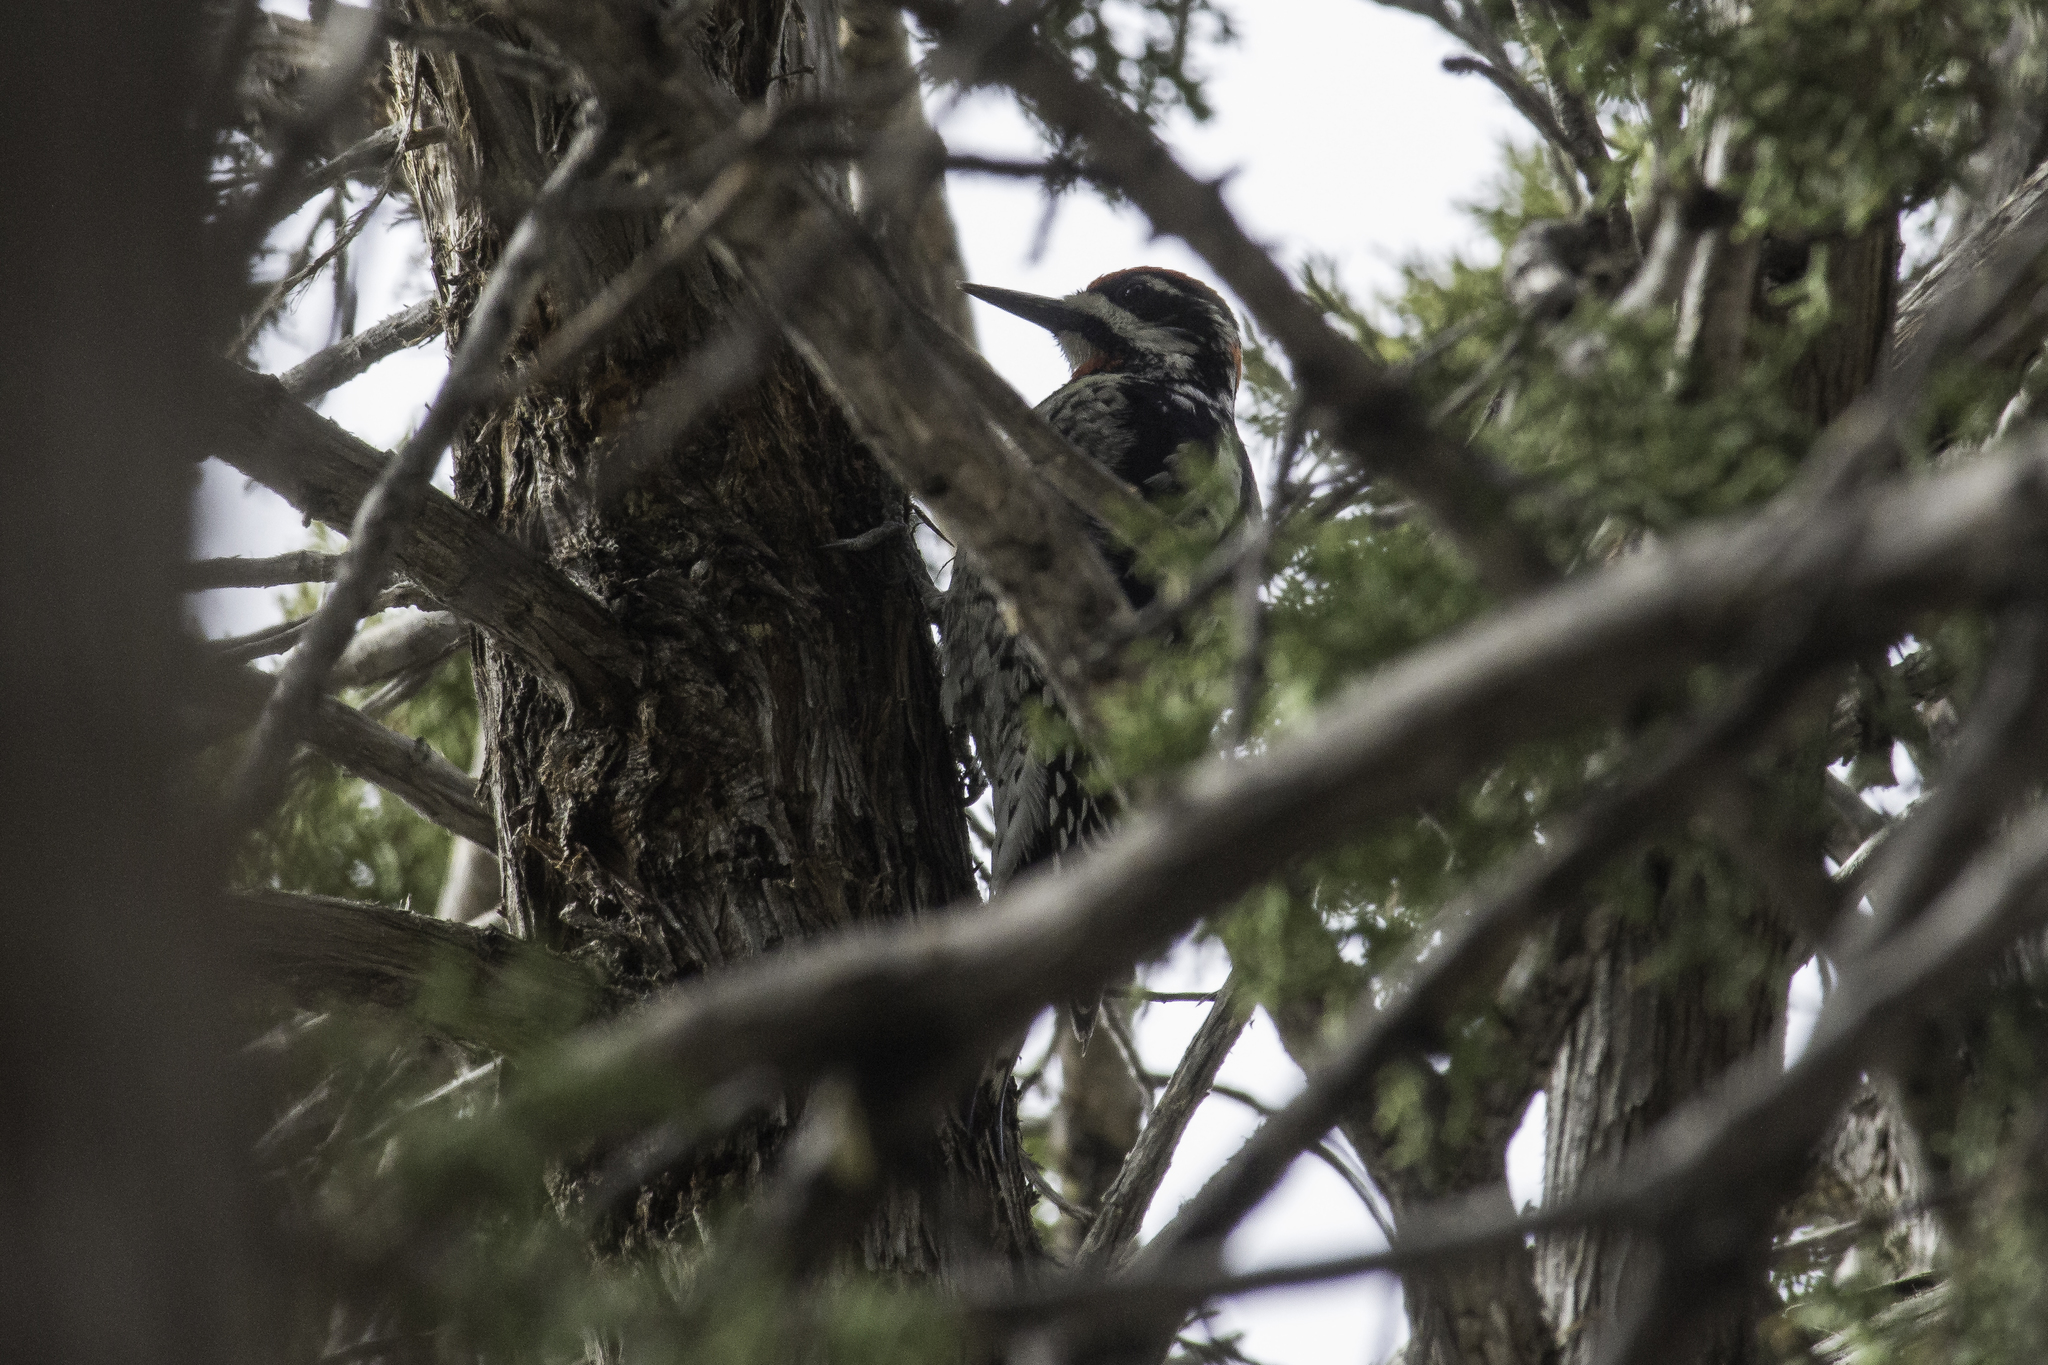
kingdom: Animalia
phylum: Chordata
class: Aves
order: Piciformes
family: Picidae
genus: Sphyrapicus
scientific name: Sphyrapicus nuchalis
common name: Red-naped sapsucker
